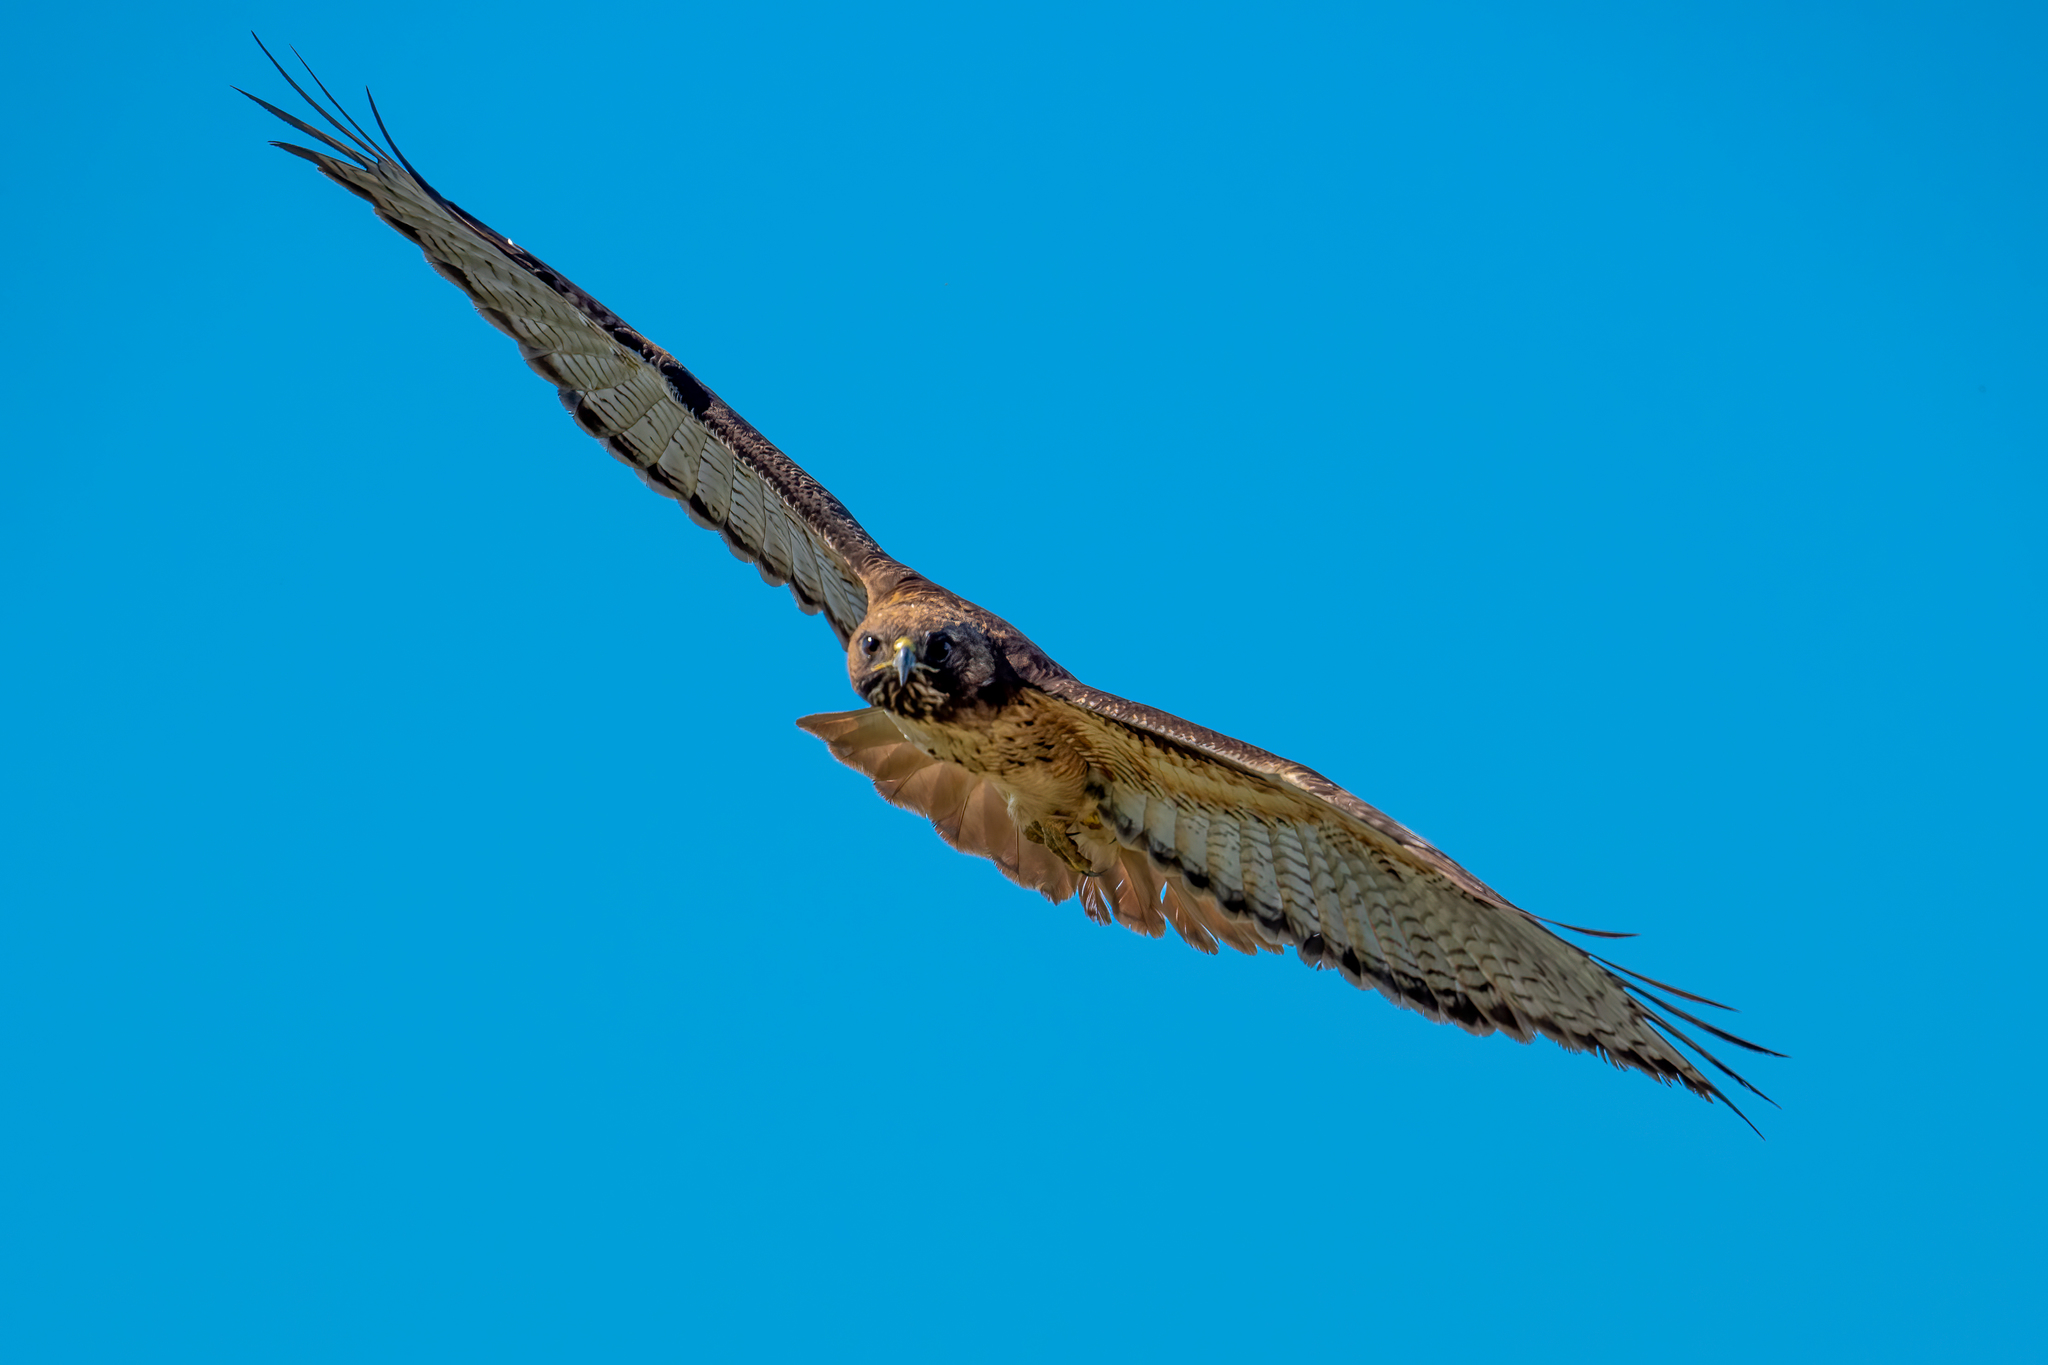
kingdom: Animalia
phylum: Chordata
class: Aves
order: Accipitriformes
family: Accipitridae
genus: Buteo
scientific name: Buteo jamaicensis
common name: Red-tailed hawk
